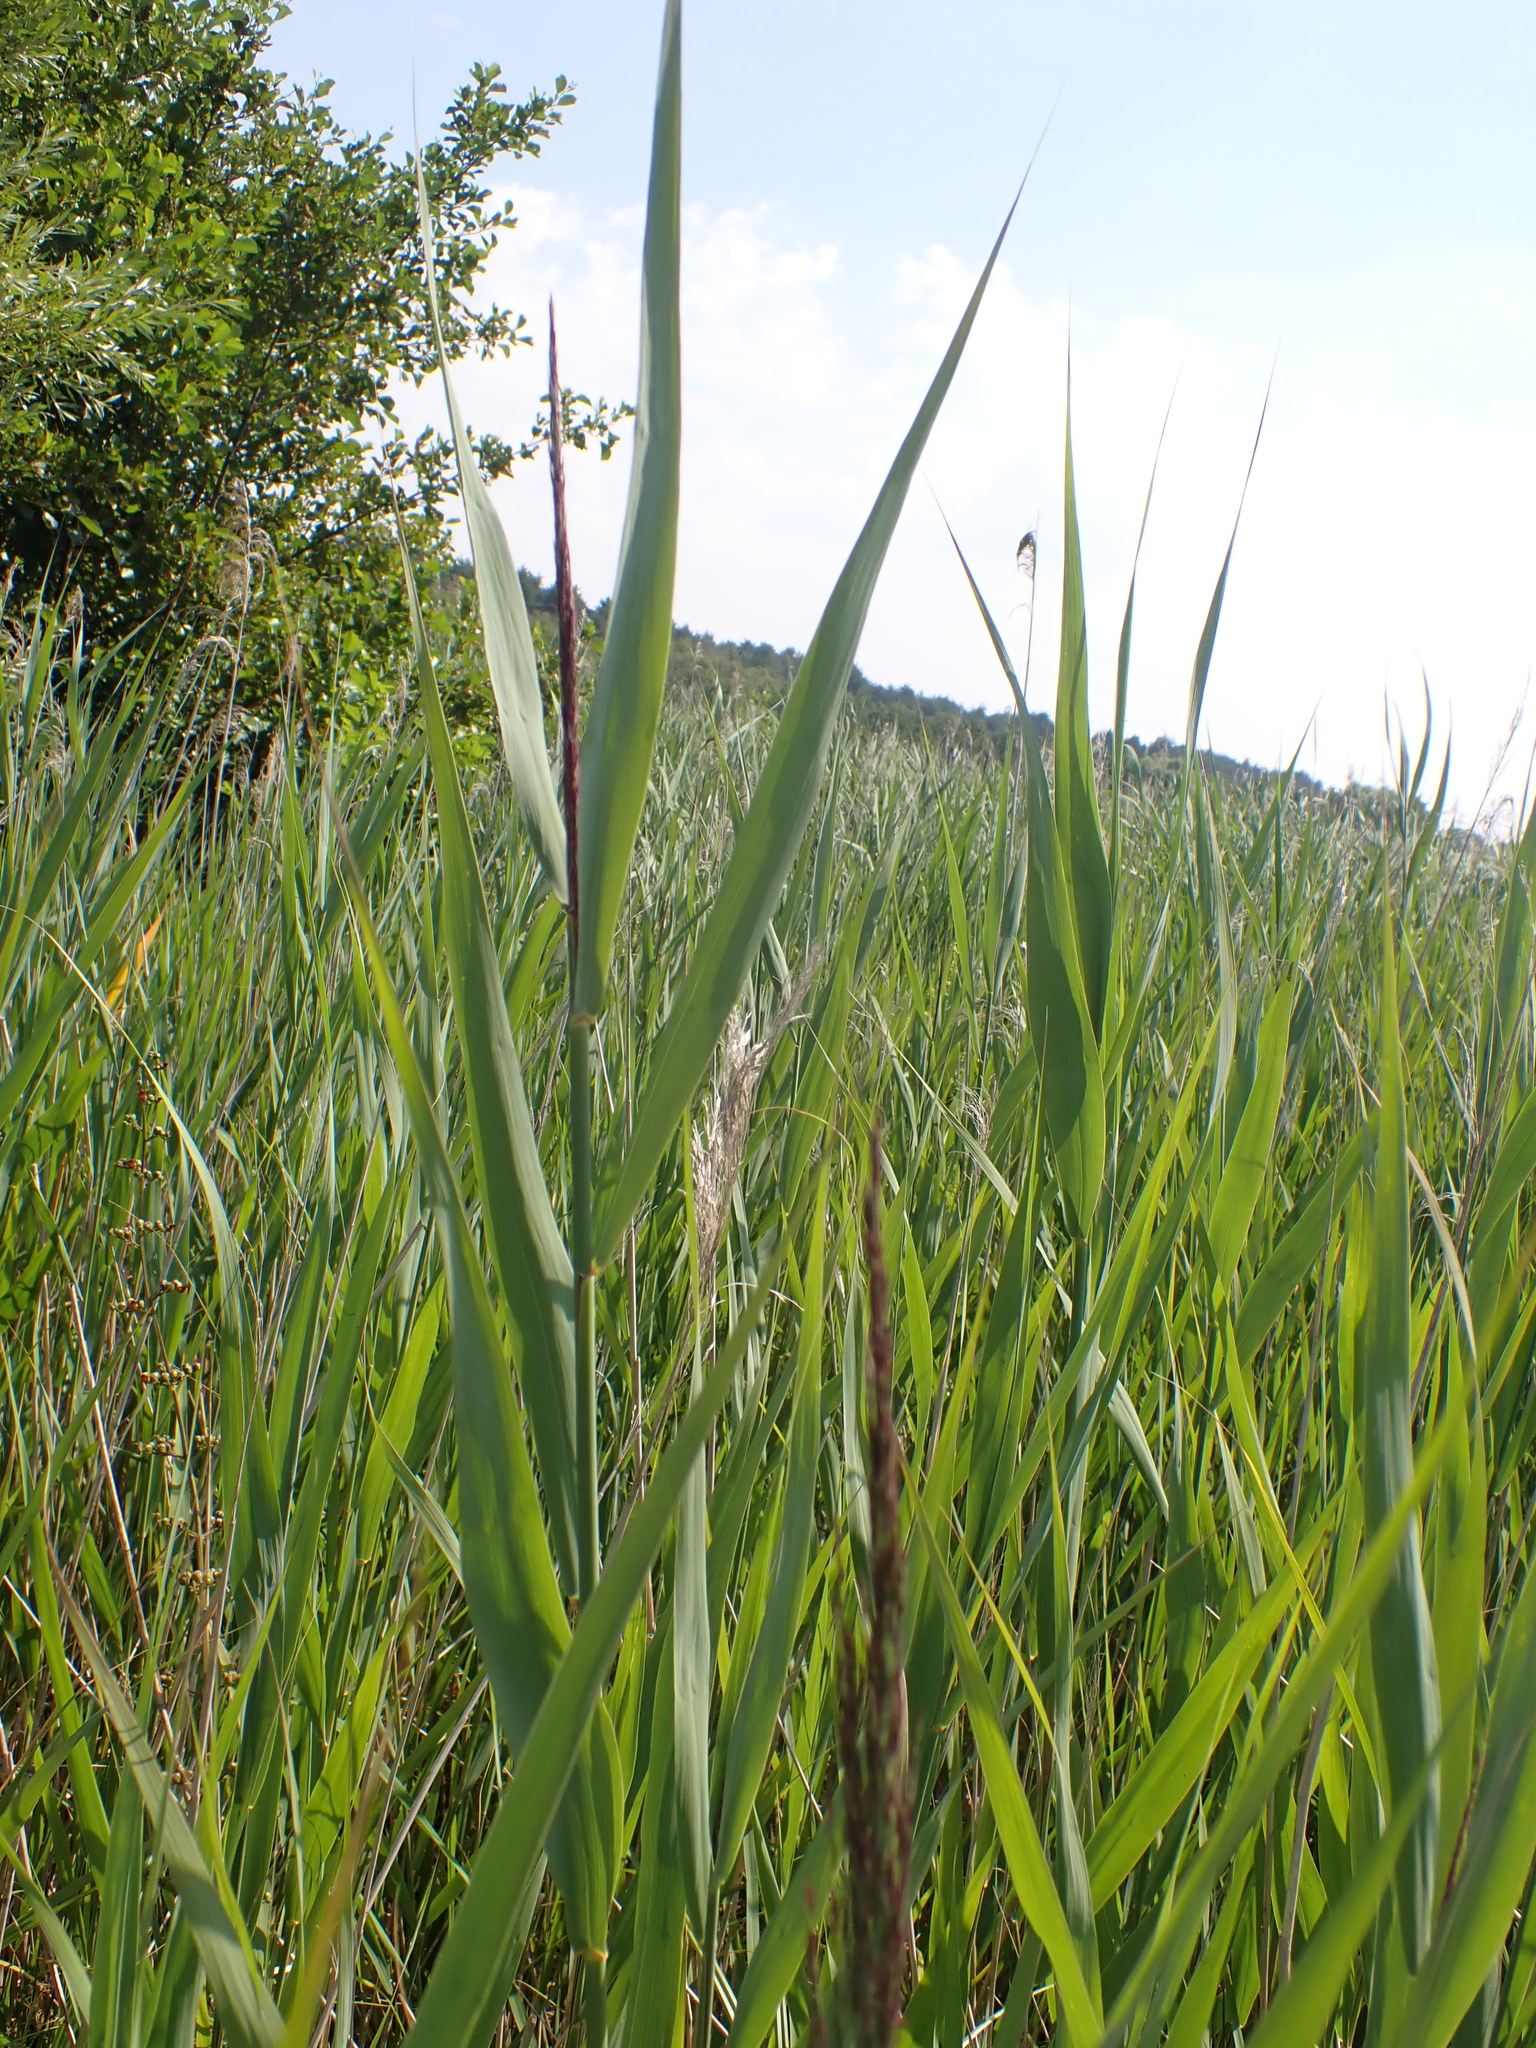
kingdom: Plantae
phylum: Tracheophyta
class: Liliopsida
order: Poales
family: Poaceae
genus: Phragmites
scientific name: Phragmites australis
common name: Common reed
